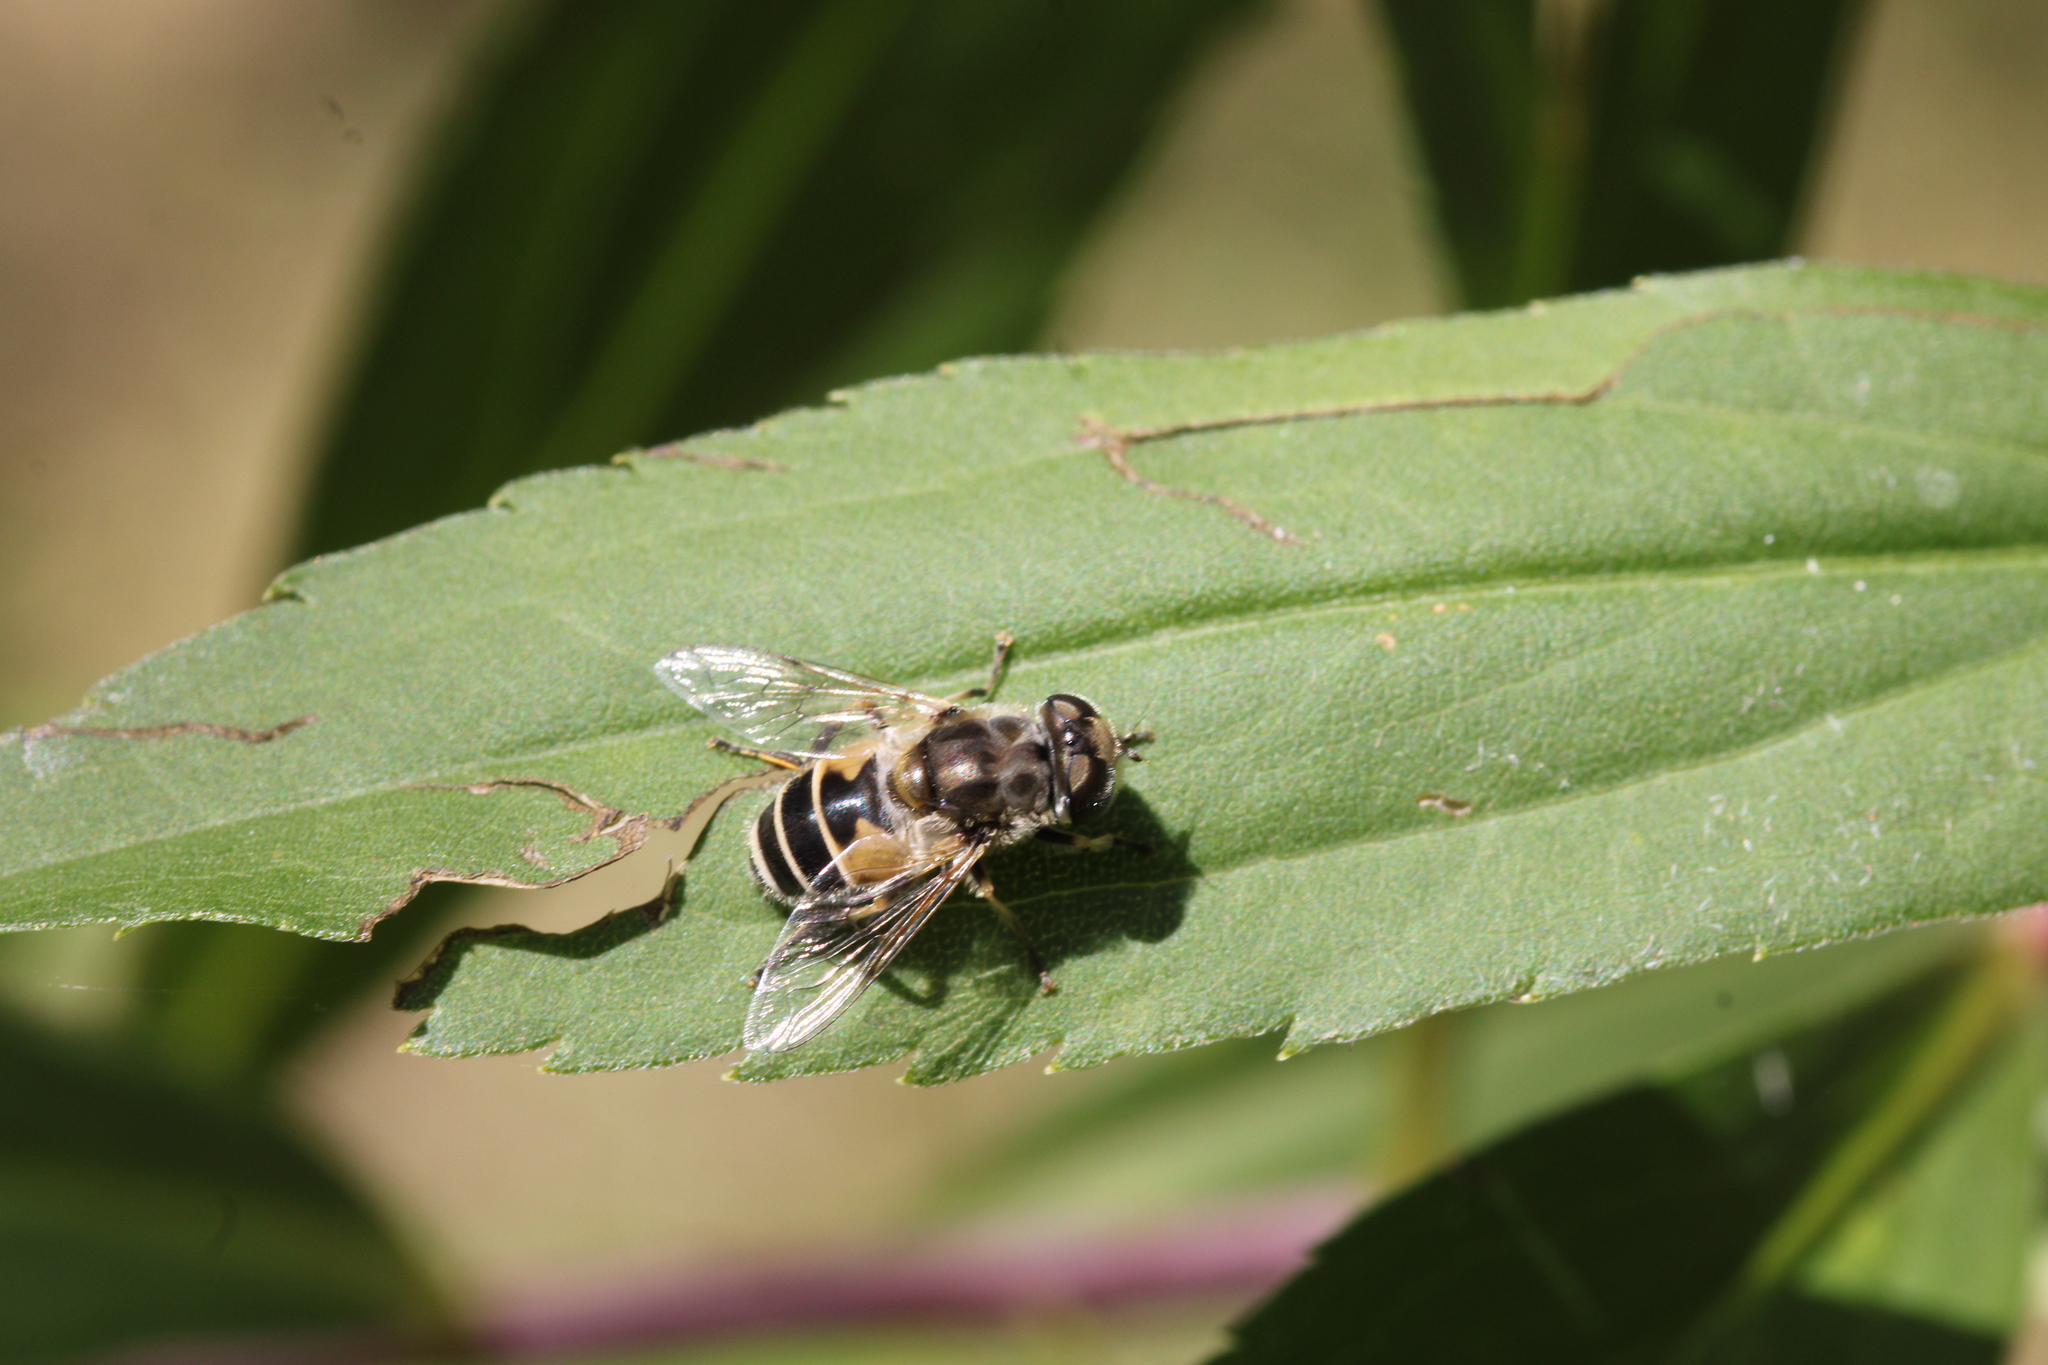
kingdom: Animalia
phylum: Arthropoda
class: Insecta
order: Diptera
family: Syrphidae
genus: Eristalis
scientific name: Eristalis arbustorum
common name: Hover fly
